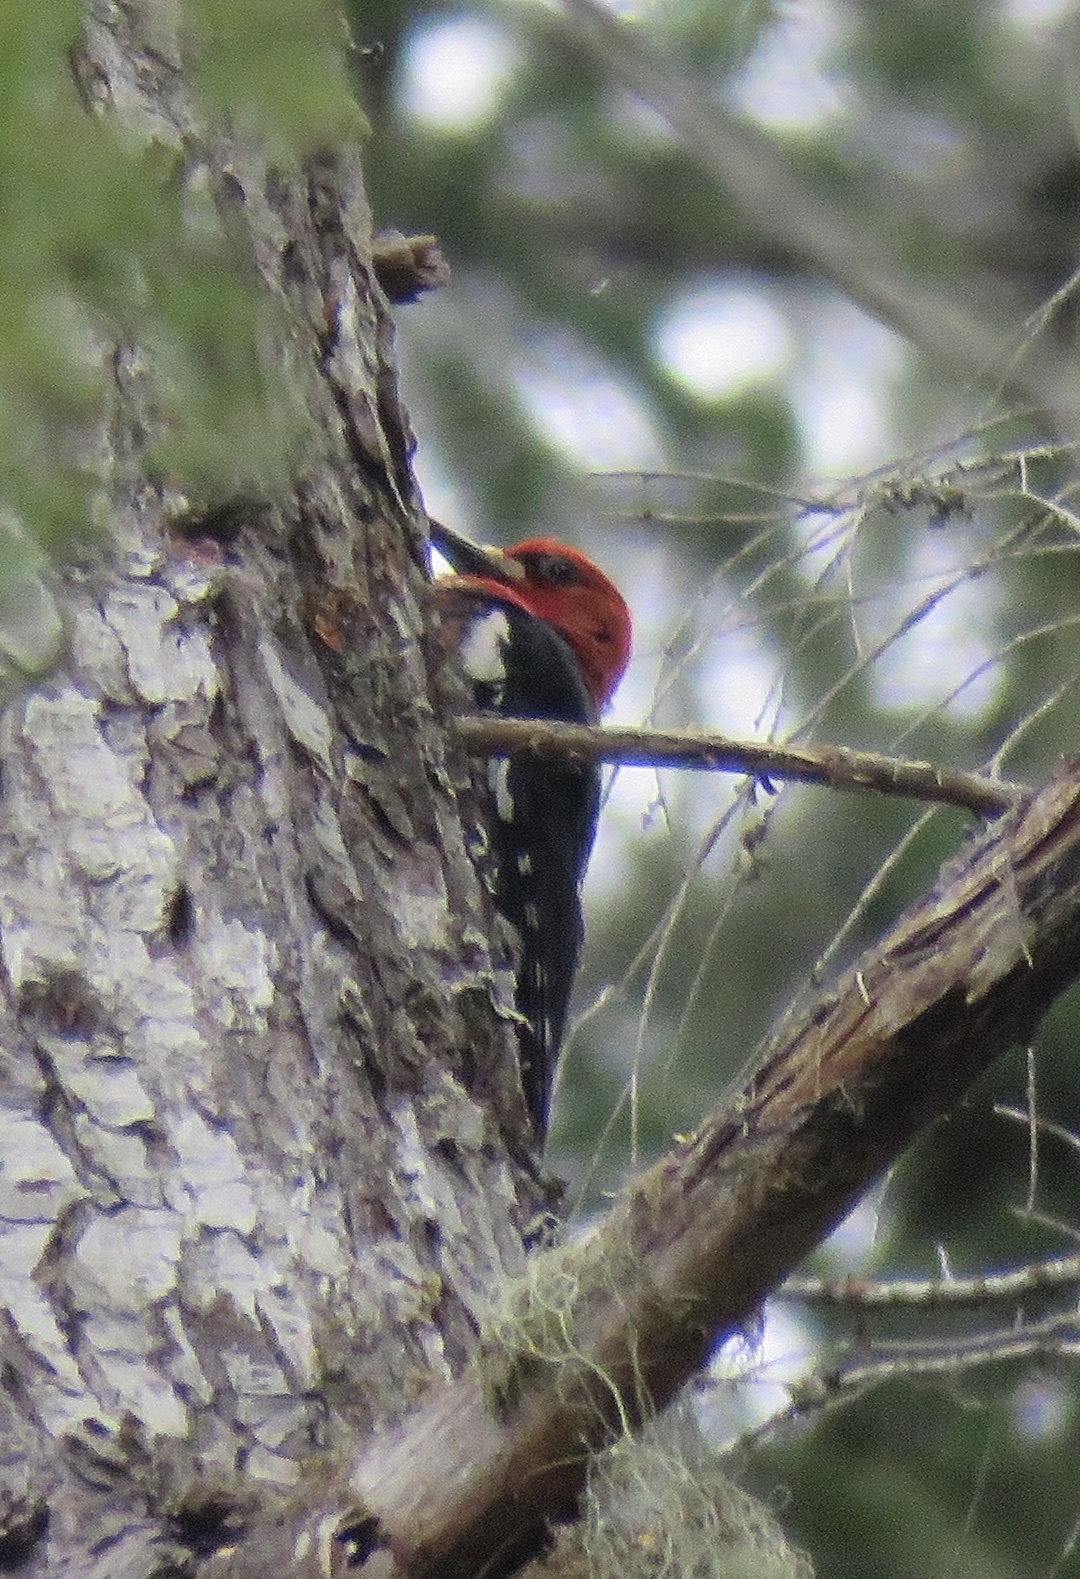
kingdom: Animalia
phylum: Chordata
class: Aves
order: Piciformes
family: Picidae
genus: Sphyrapicus
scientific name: Sphyrapicus ruber
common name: Red-breasted sapsucker
